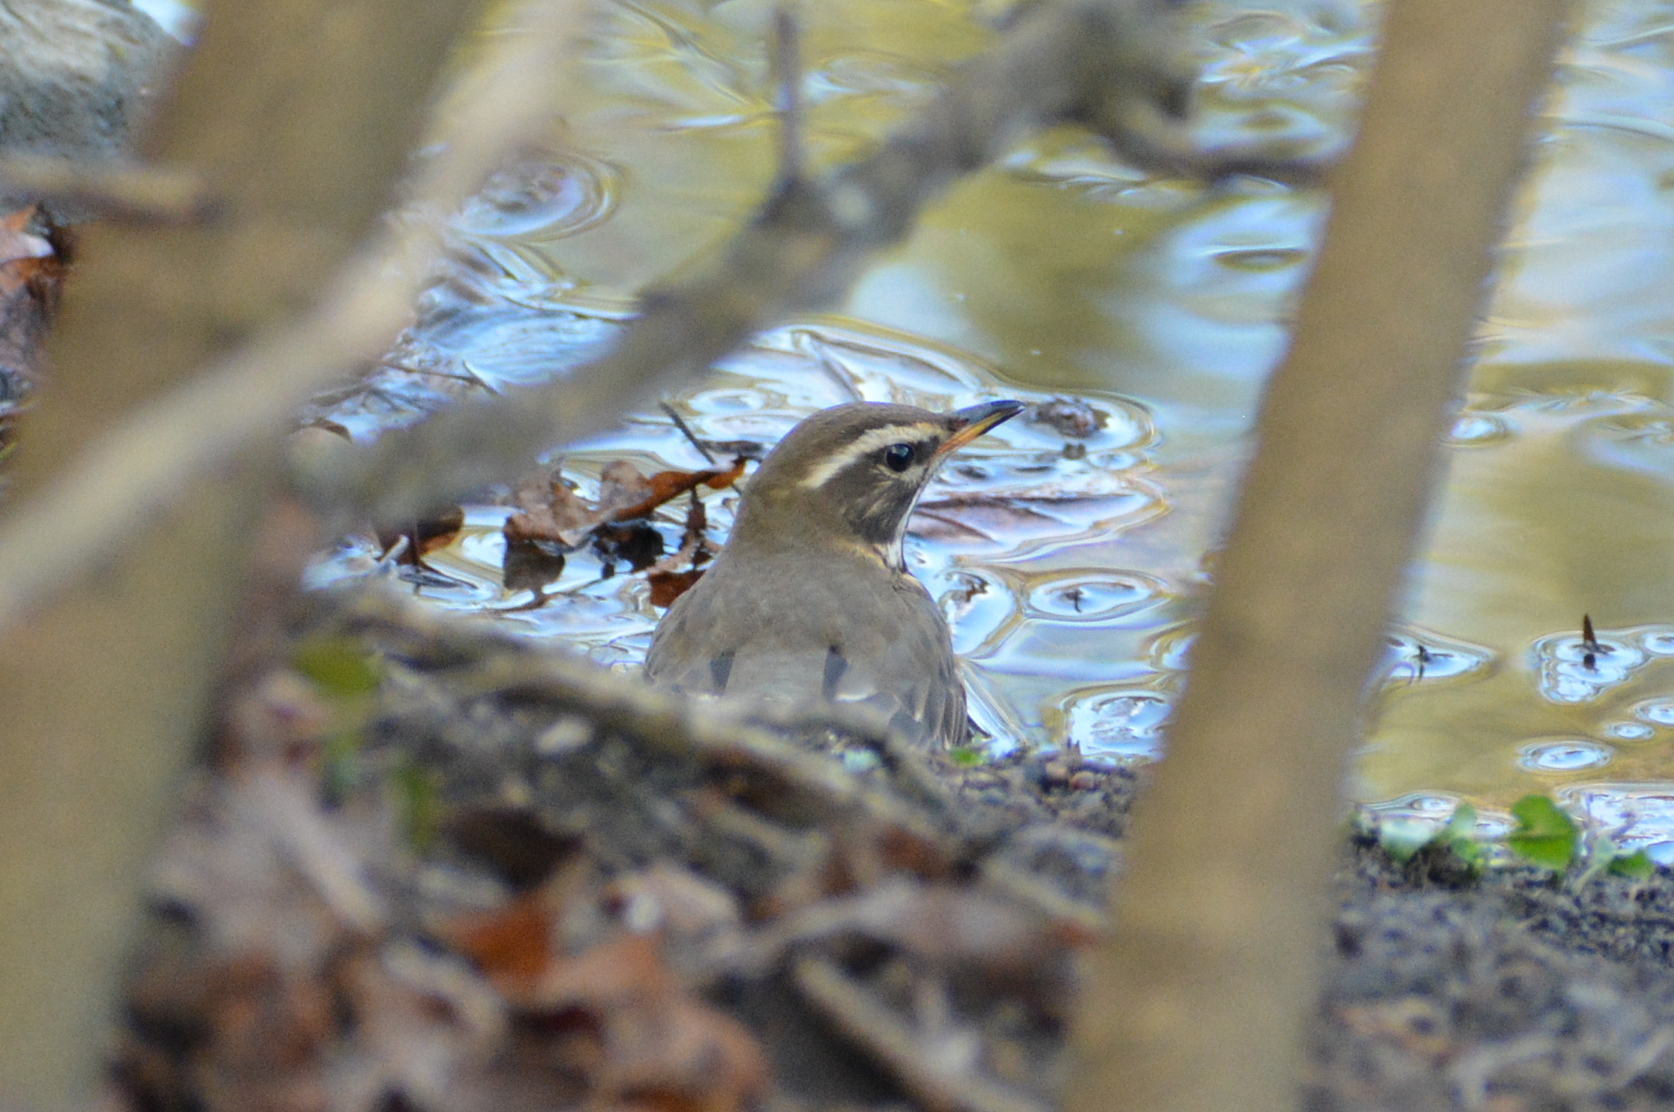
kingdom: Animalia
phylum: Chordata
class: Aves
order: Passeriformes
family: Turdidae
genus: Turdus
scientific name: Turdus iliacus
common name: Redwing
